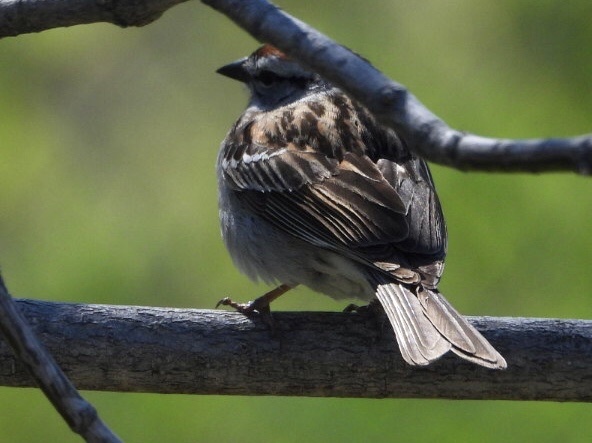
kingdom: Animalia
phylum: Chordata
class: Aves
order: Passeriformes
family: Passerellidae
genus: Spizella
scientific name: Spizella passerina
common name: Chipping sparrow
